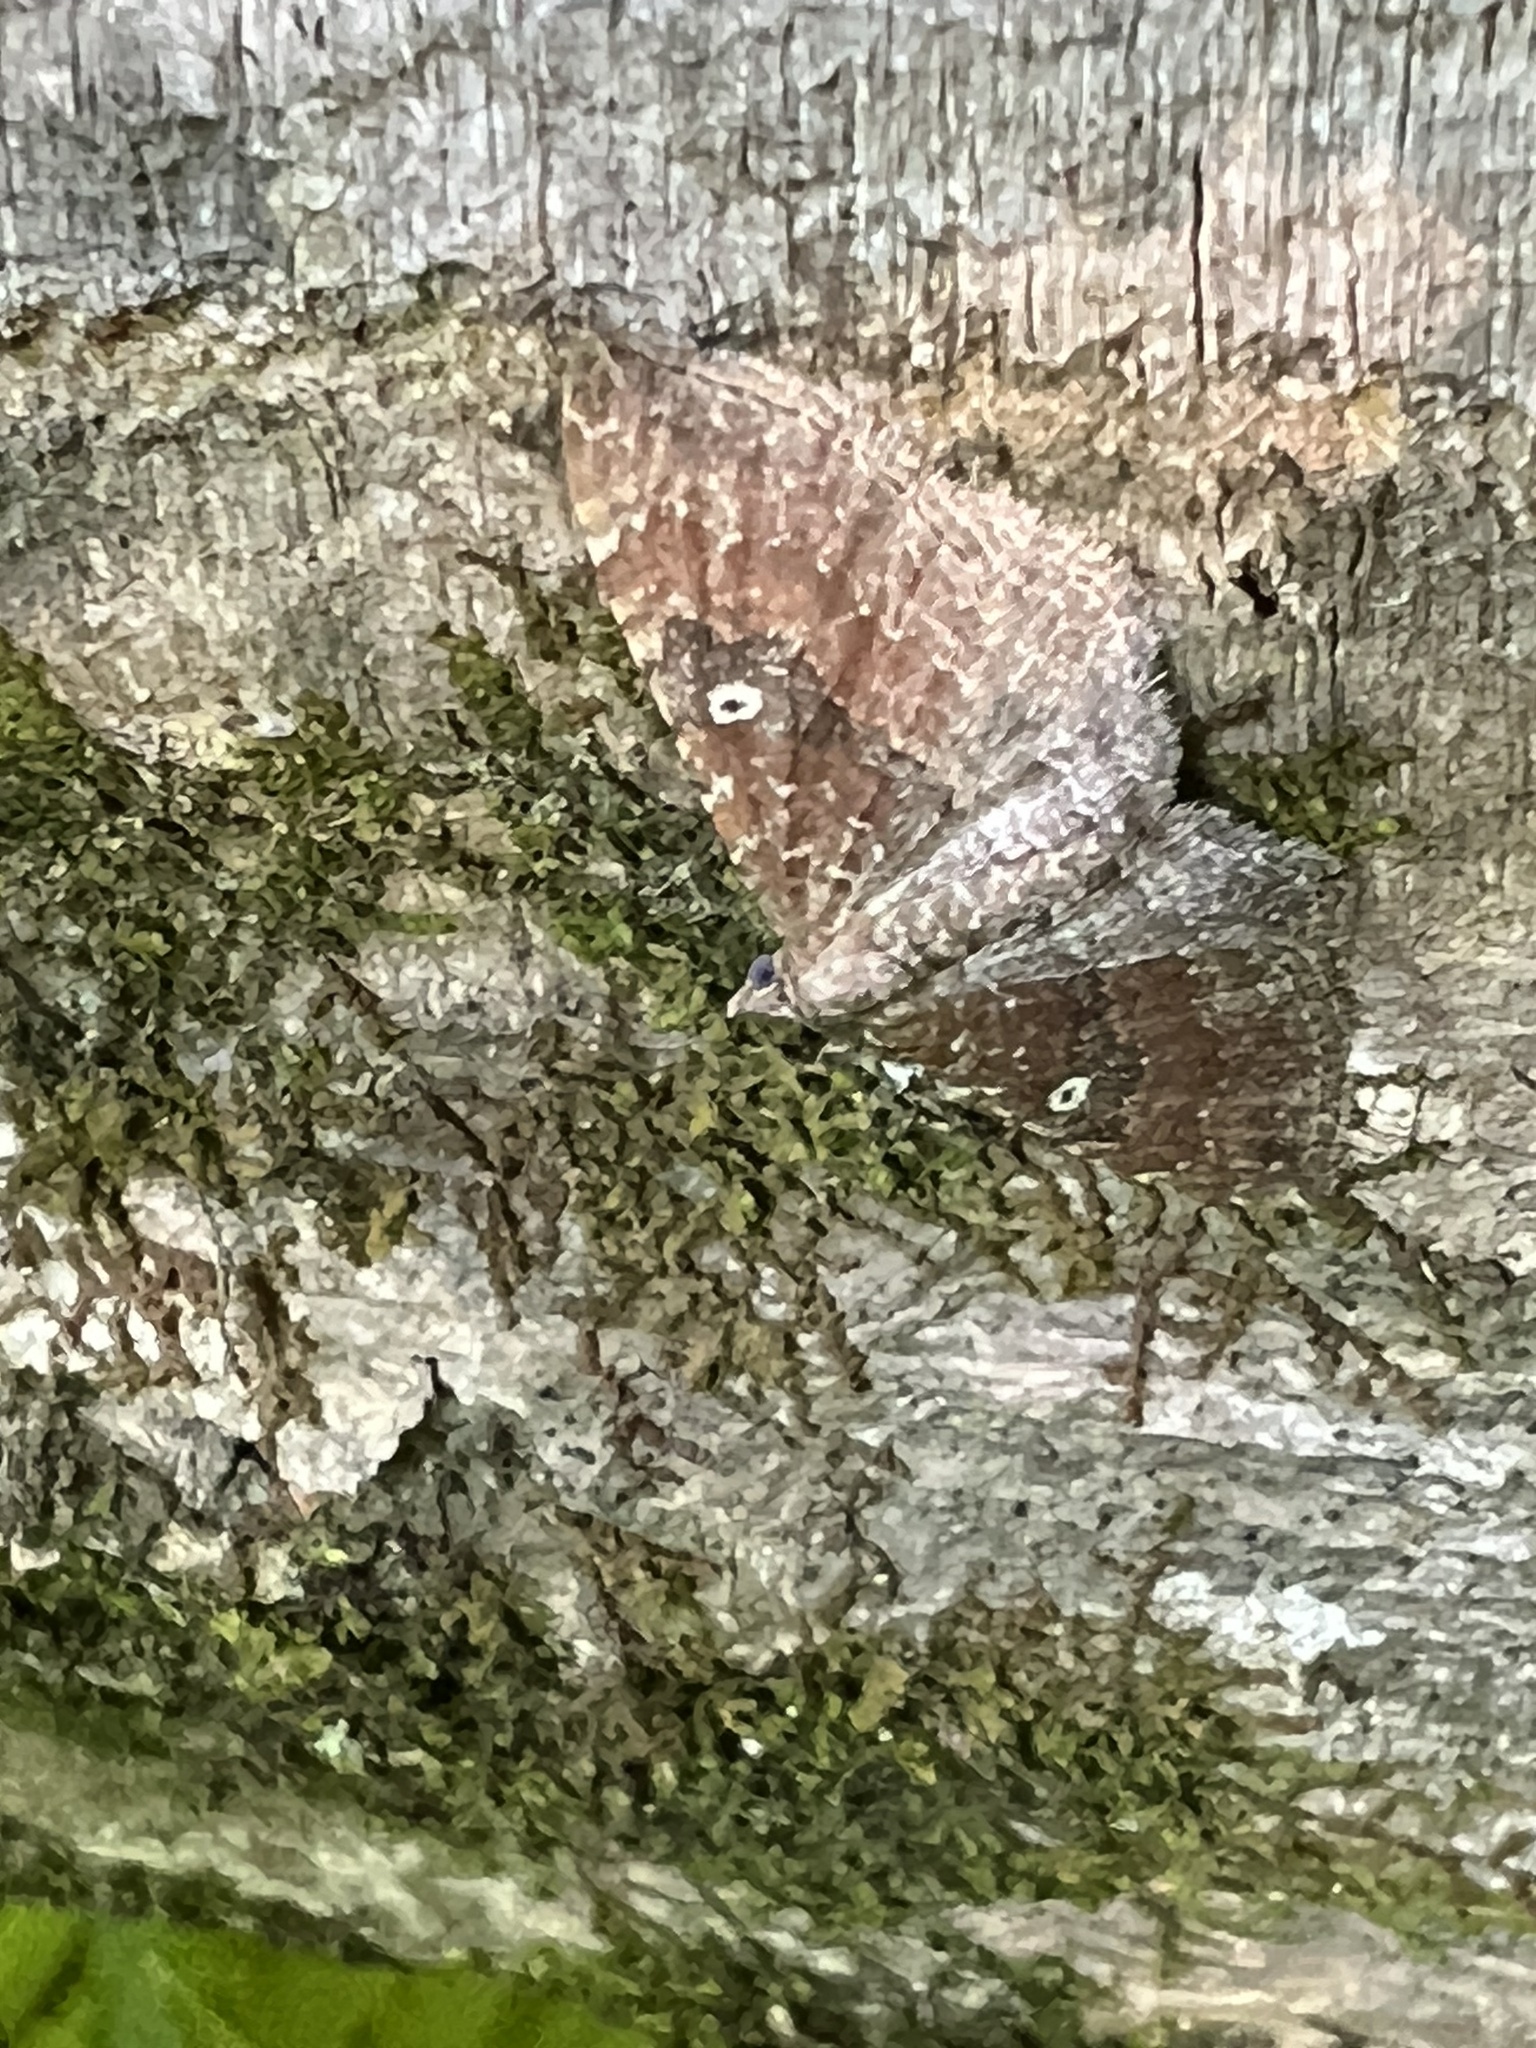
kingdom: Animalia
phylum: Arthropoda
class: Insecta
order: Lepidoptera
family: Geometridae
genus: Orthonama
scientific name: Orthonama obstipata
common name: The gem
